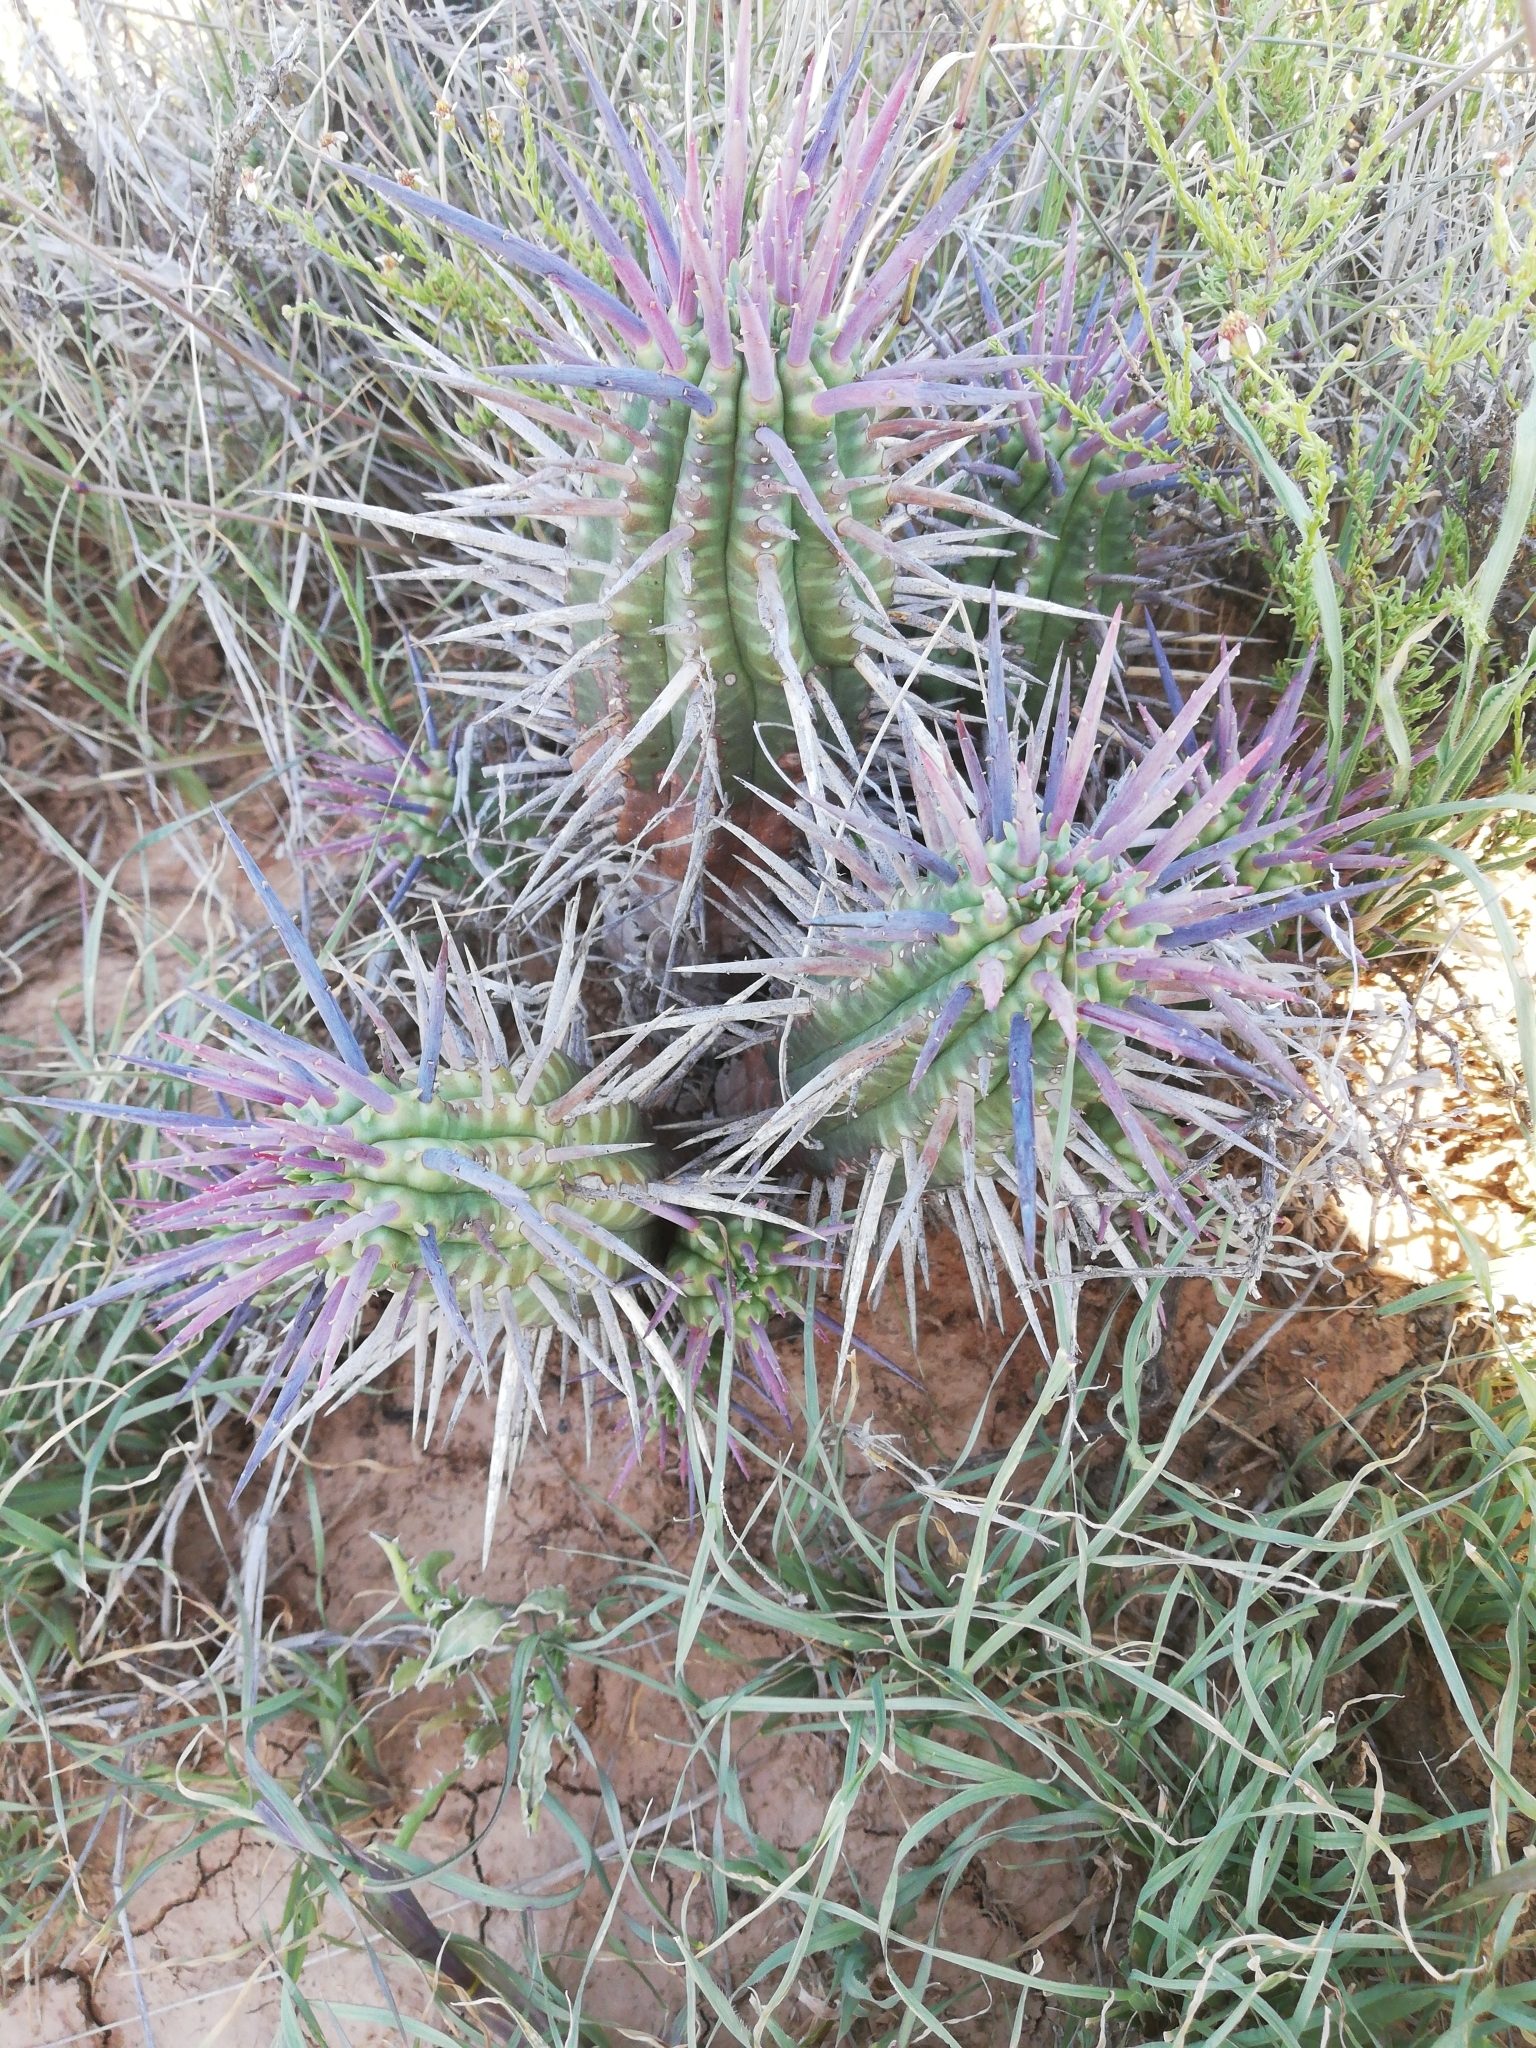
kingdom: Plantae
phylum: Tracheophyta
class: Magnoliopsida
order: Malpighiales
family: Euphorbiaceae
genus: Euphorbia
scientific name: Euphorbia ferox
